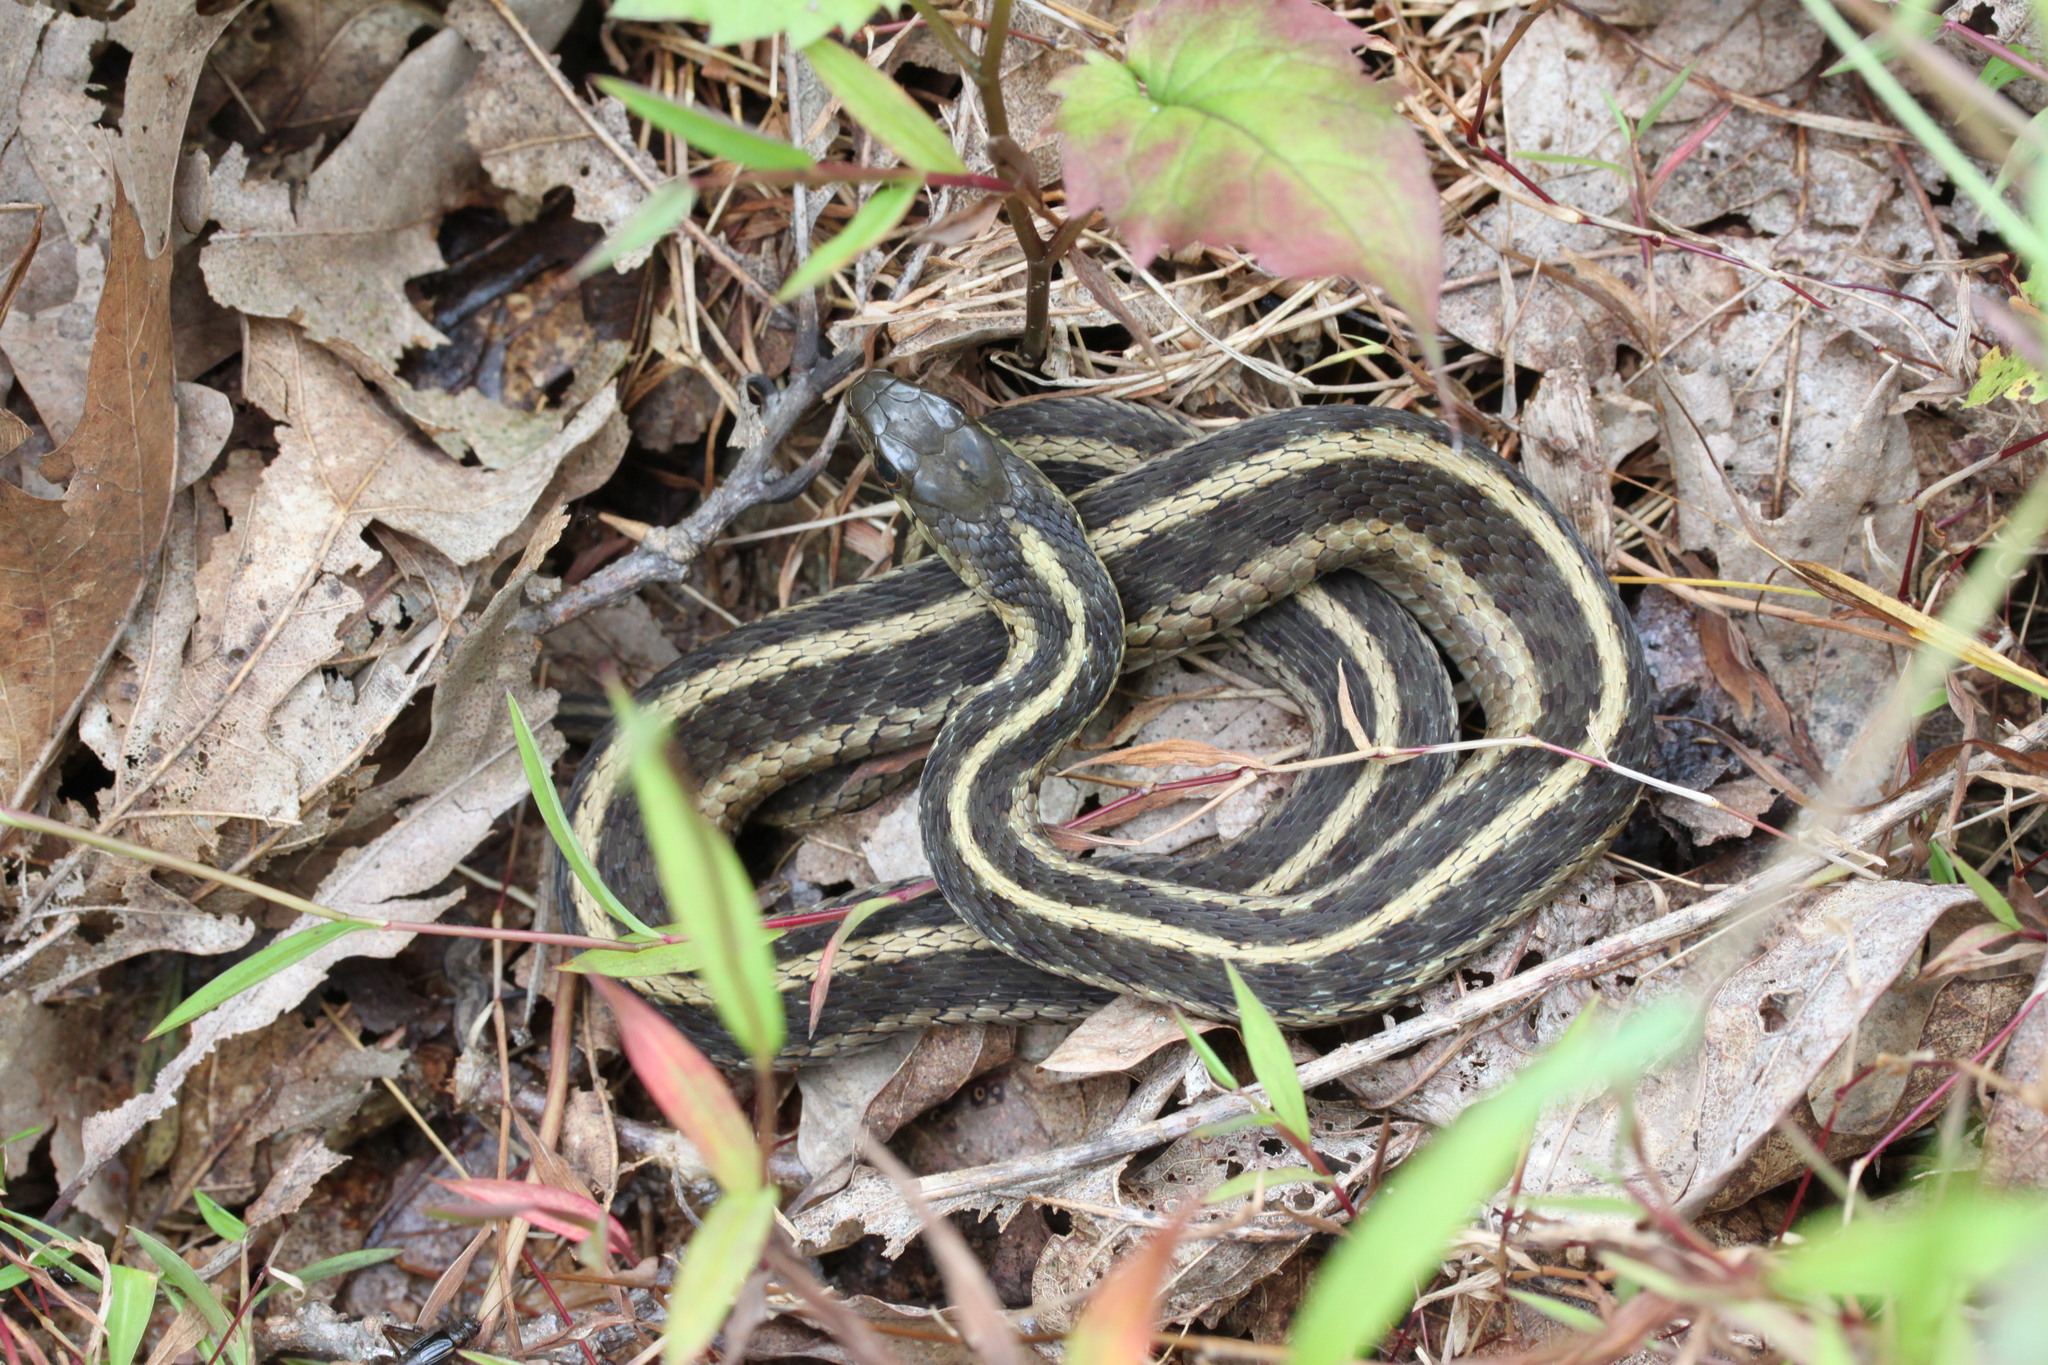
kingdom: Animalia
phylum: Chordata
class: Squamata
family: Colubridae
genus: Thamnophis
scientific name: Thamnophis sirtalis
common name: Common garter snake
